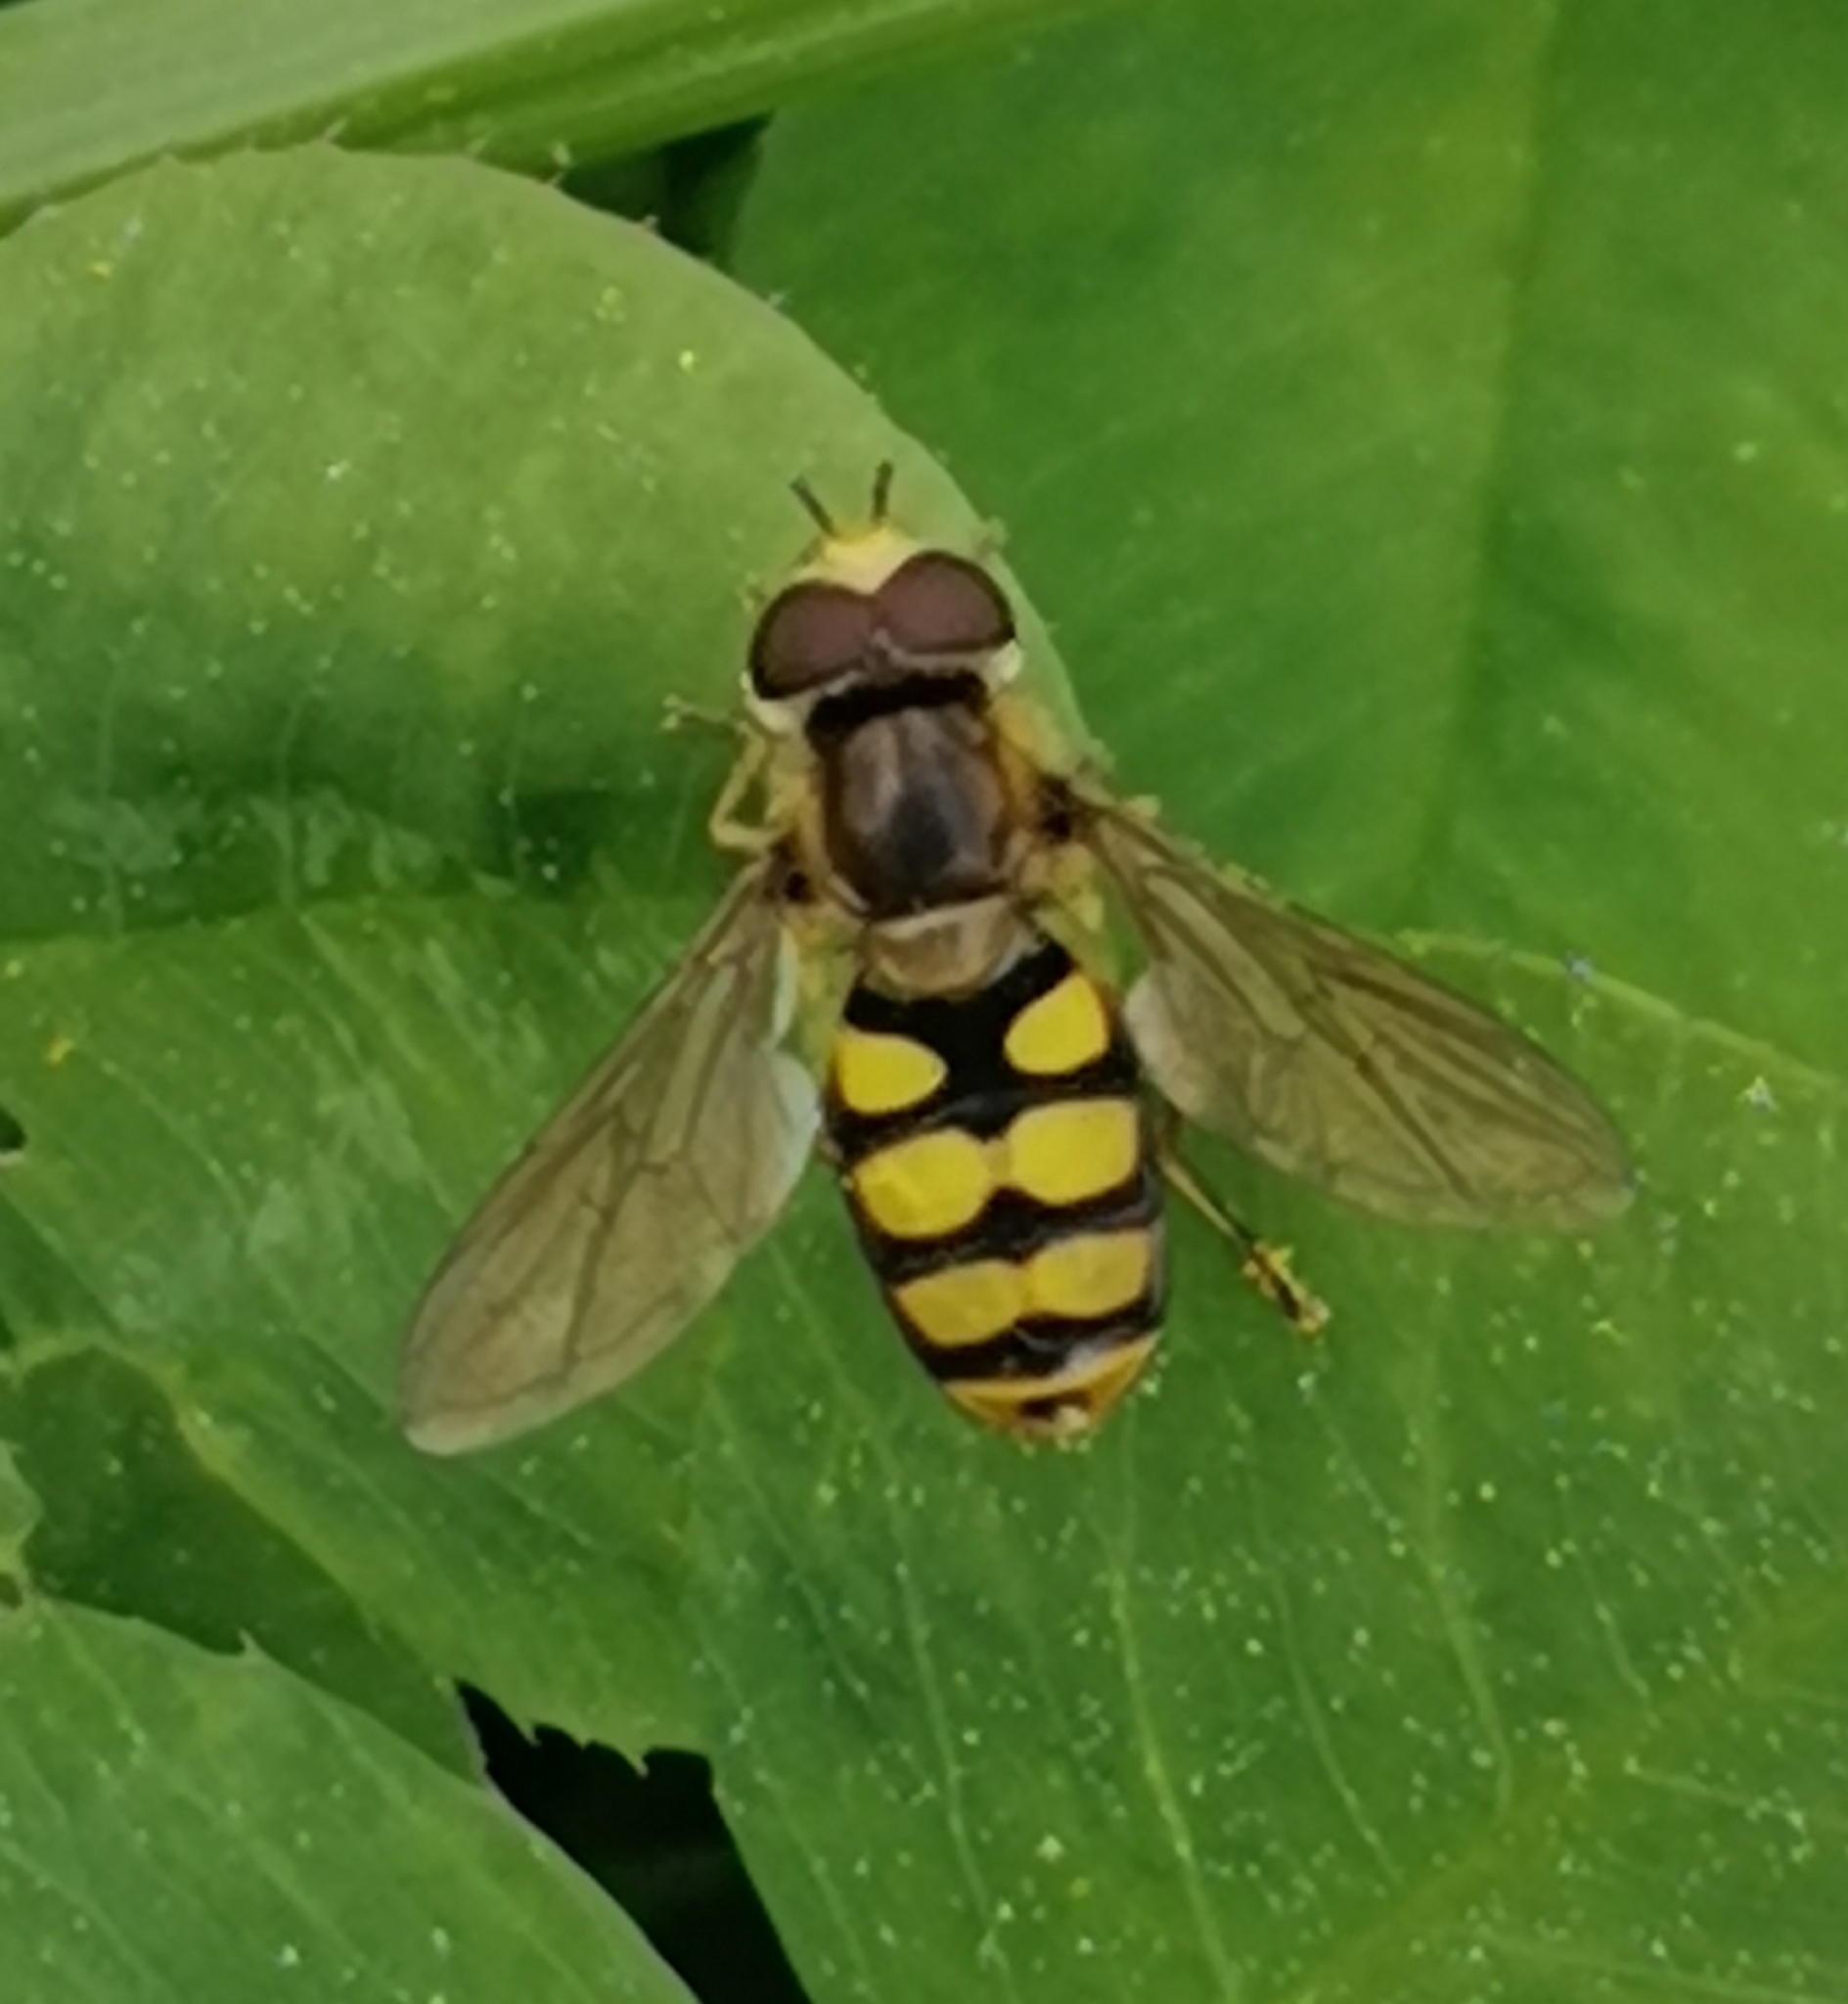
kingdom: Animalia
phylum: Arthropoda
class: Insecta
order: Diptera
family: Syrphidae
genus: Eupeodes
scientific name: Eupeodes latifasciatus
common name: Variable aphideater
